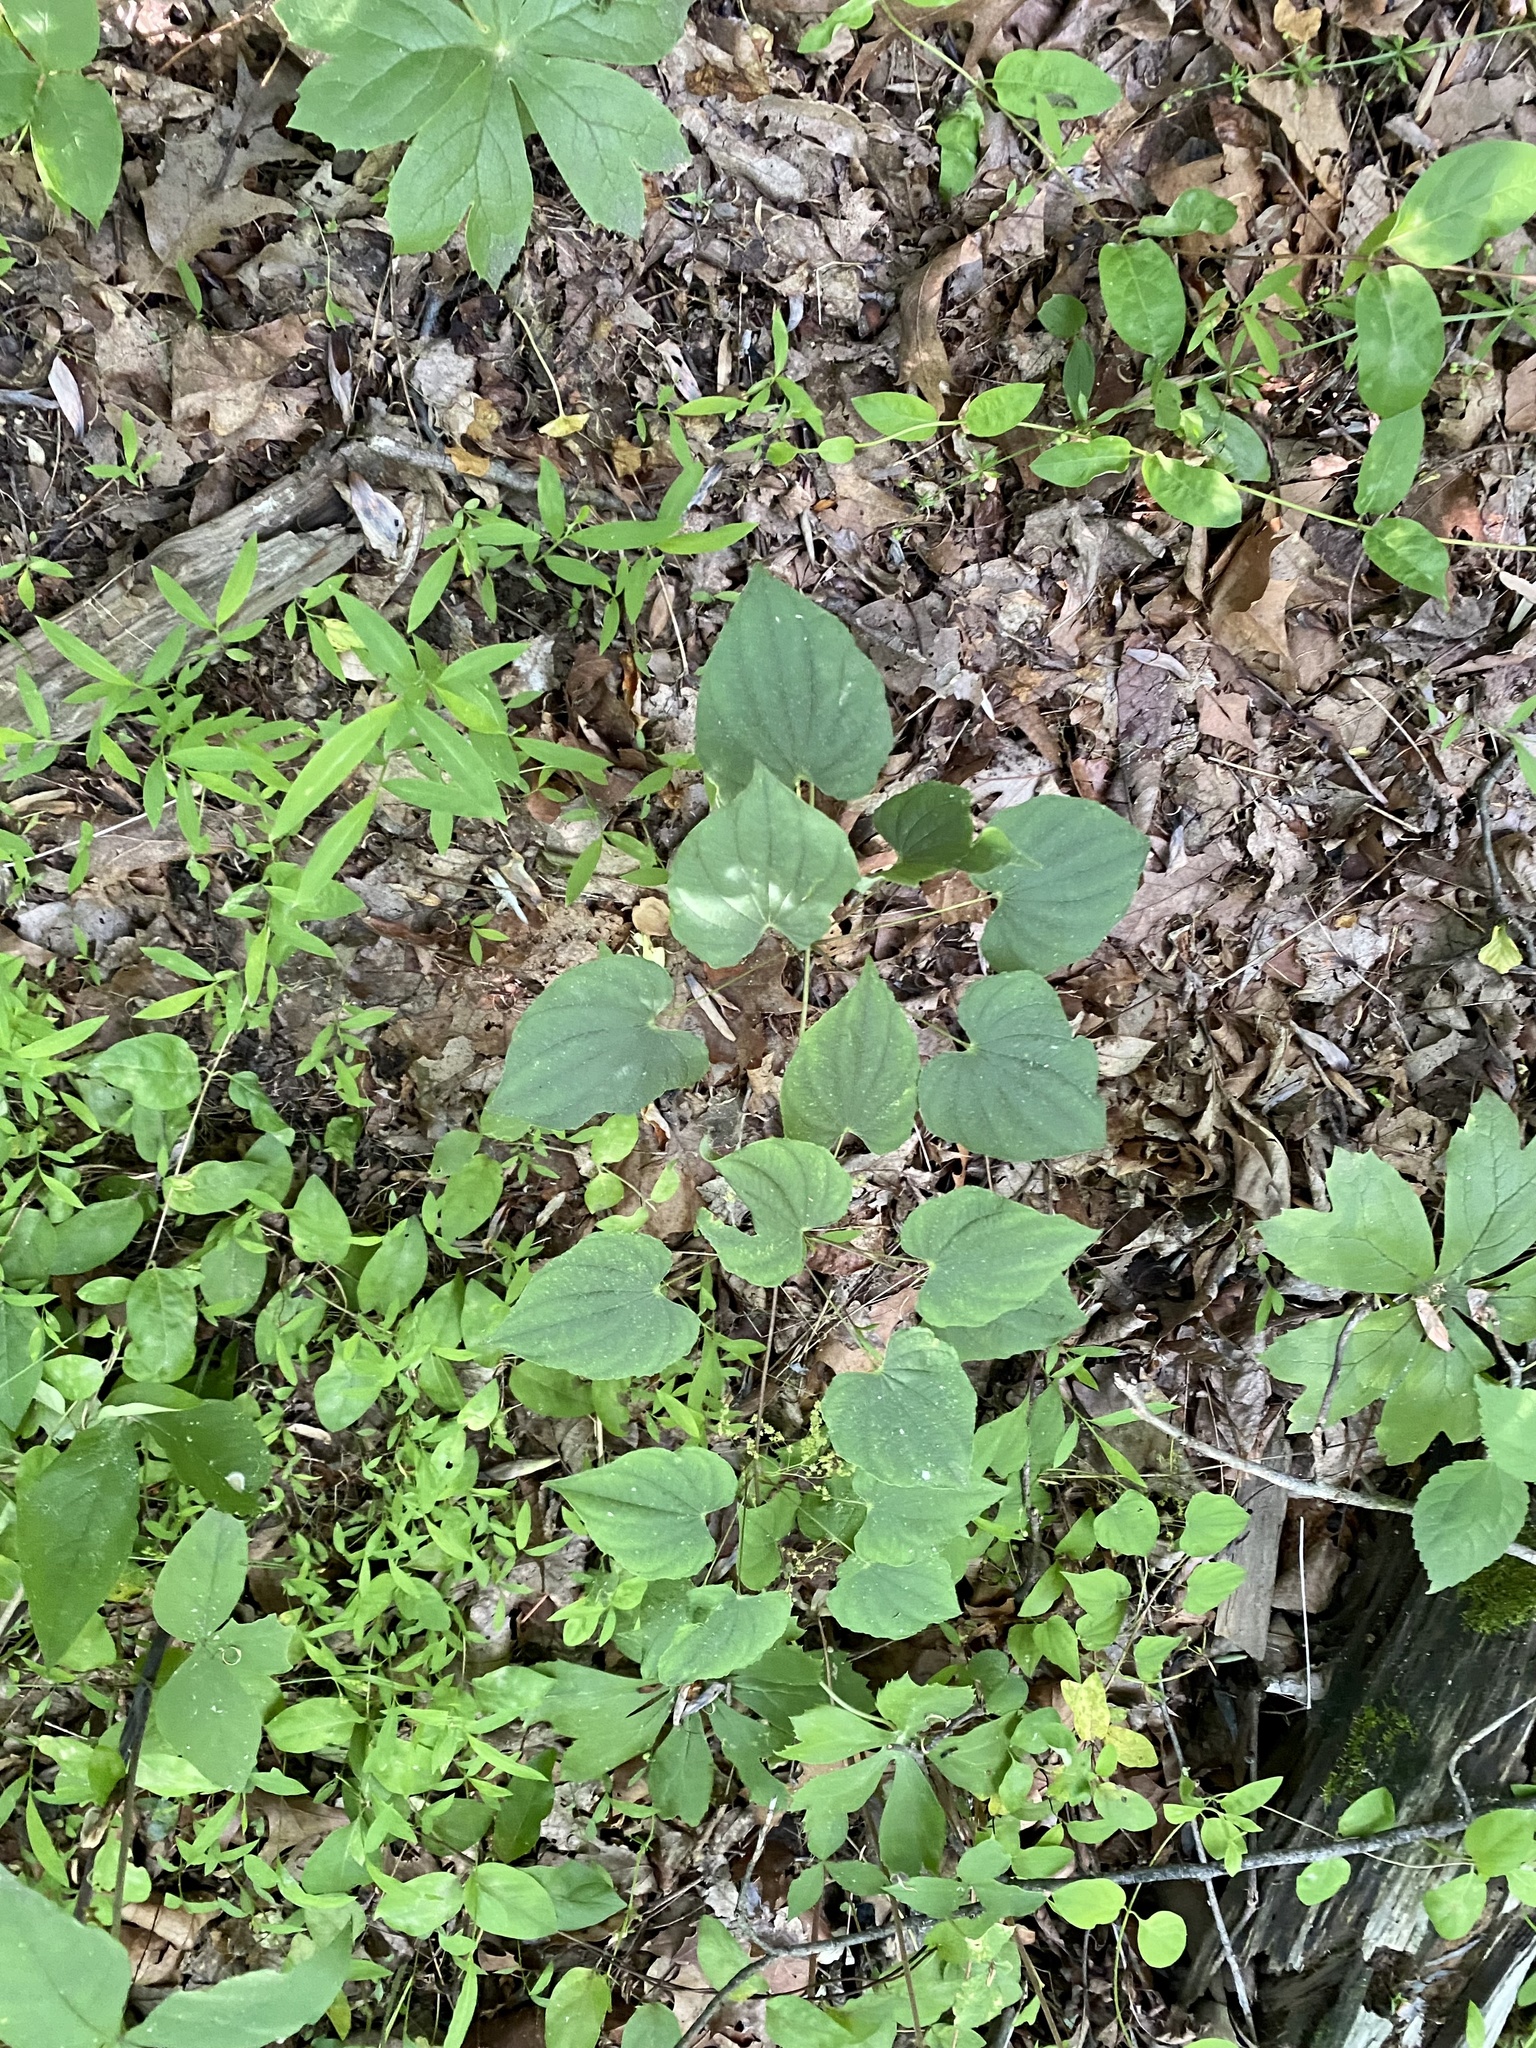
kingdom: Plantae
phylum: Tracheophyta
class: Liliopsida
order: Dioscoreales
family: Dioscoreaceae
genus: Dioscorea
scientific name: Dioscorea villosa
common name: Wild yam
